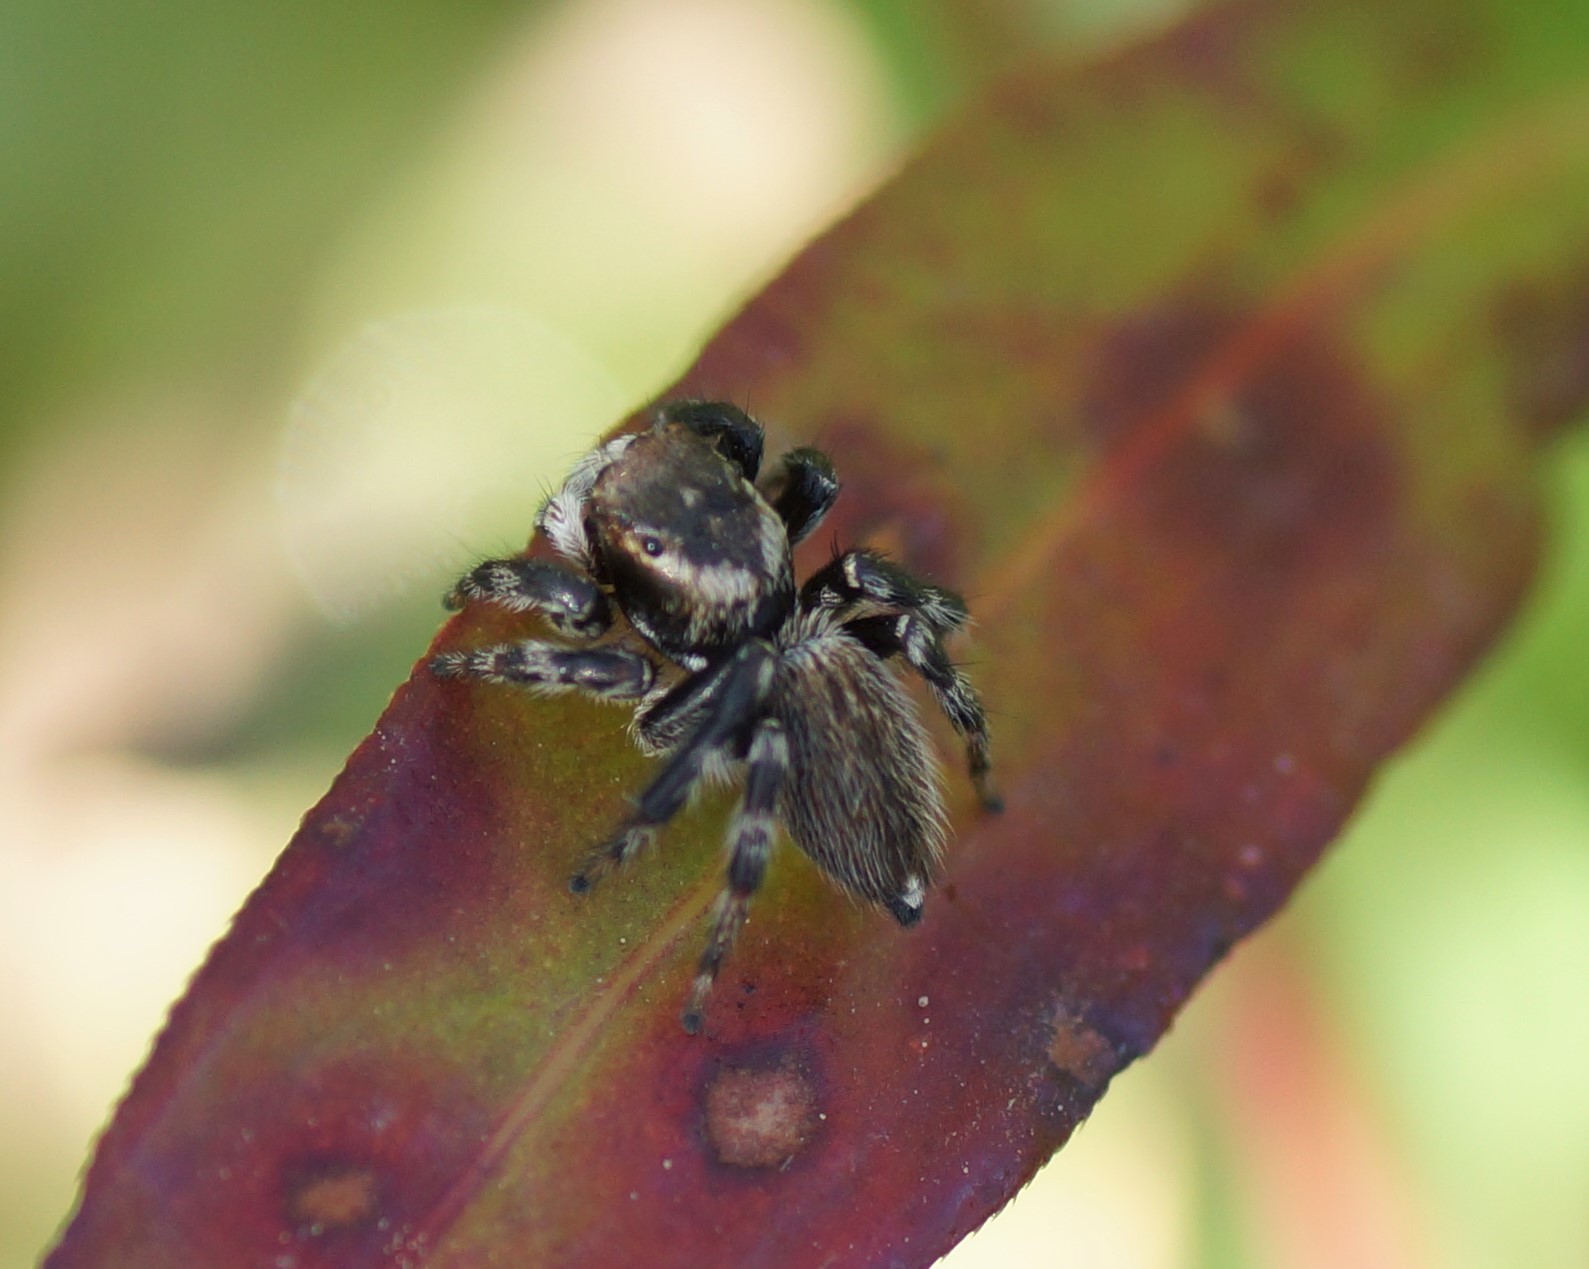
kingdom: Animalia
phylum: Arthropoda
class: Arachnida
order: Araneae
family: Salticidae
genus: Maratus
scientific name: Maratus griseus
